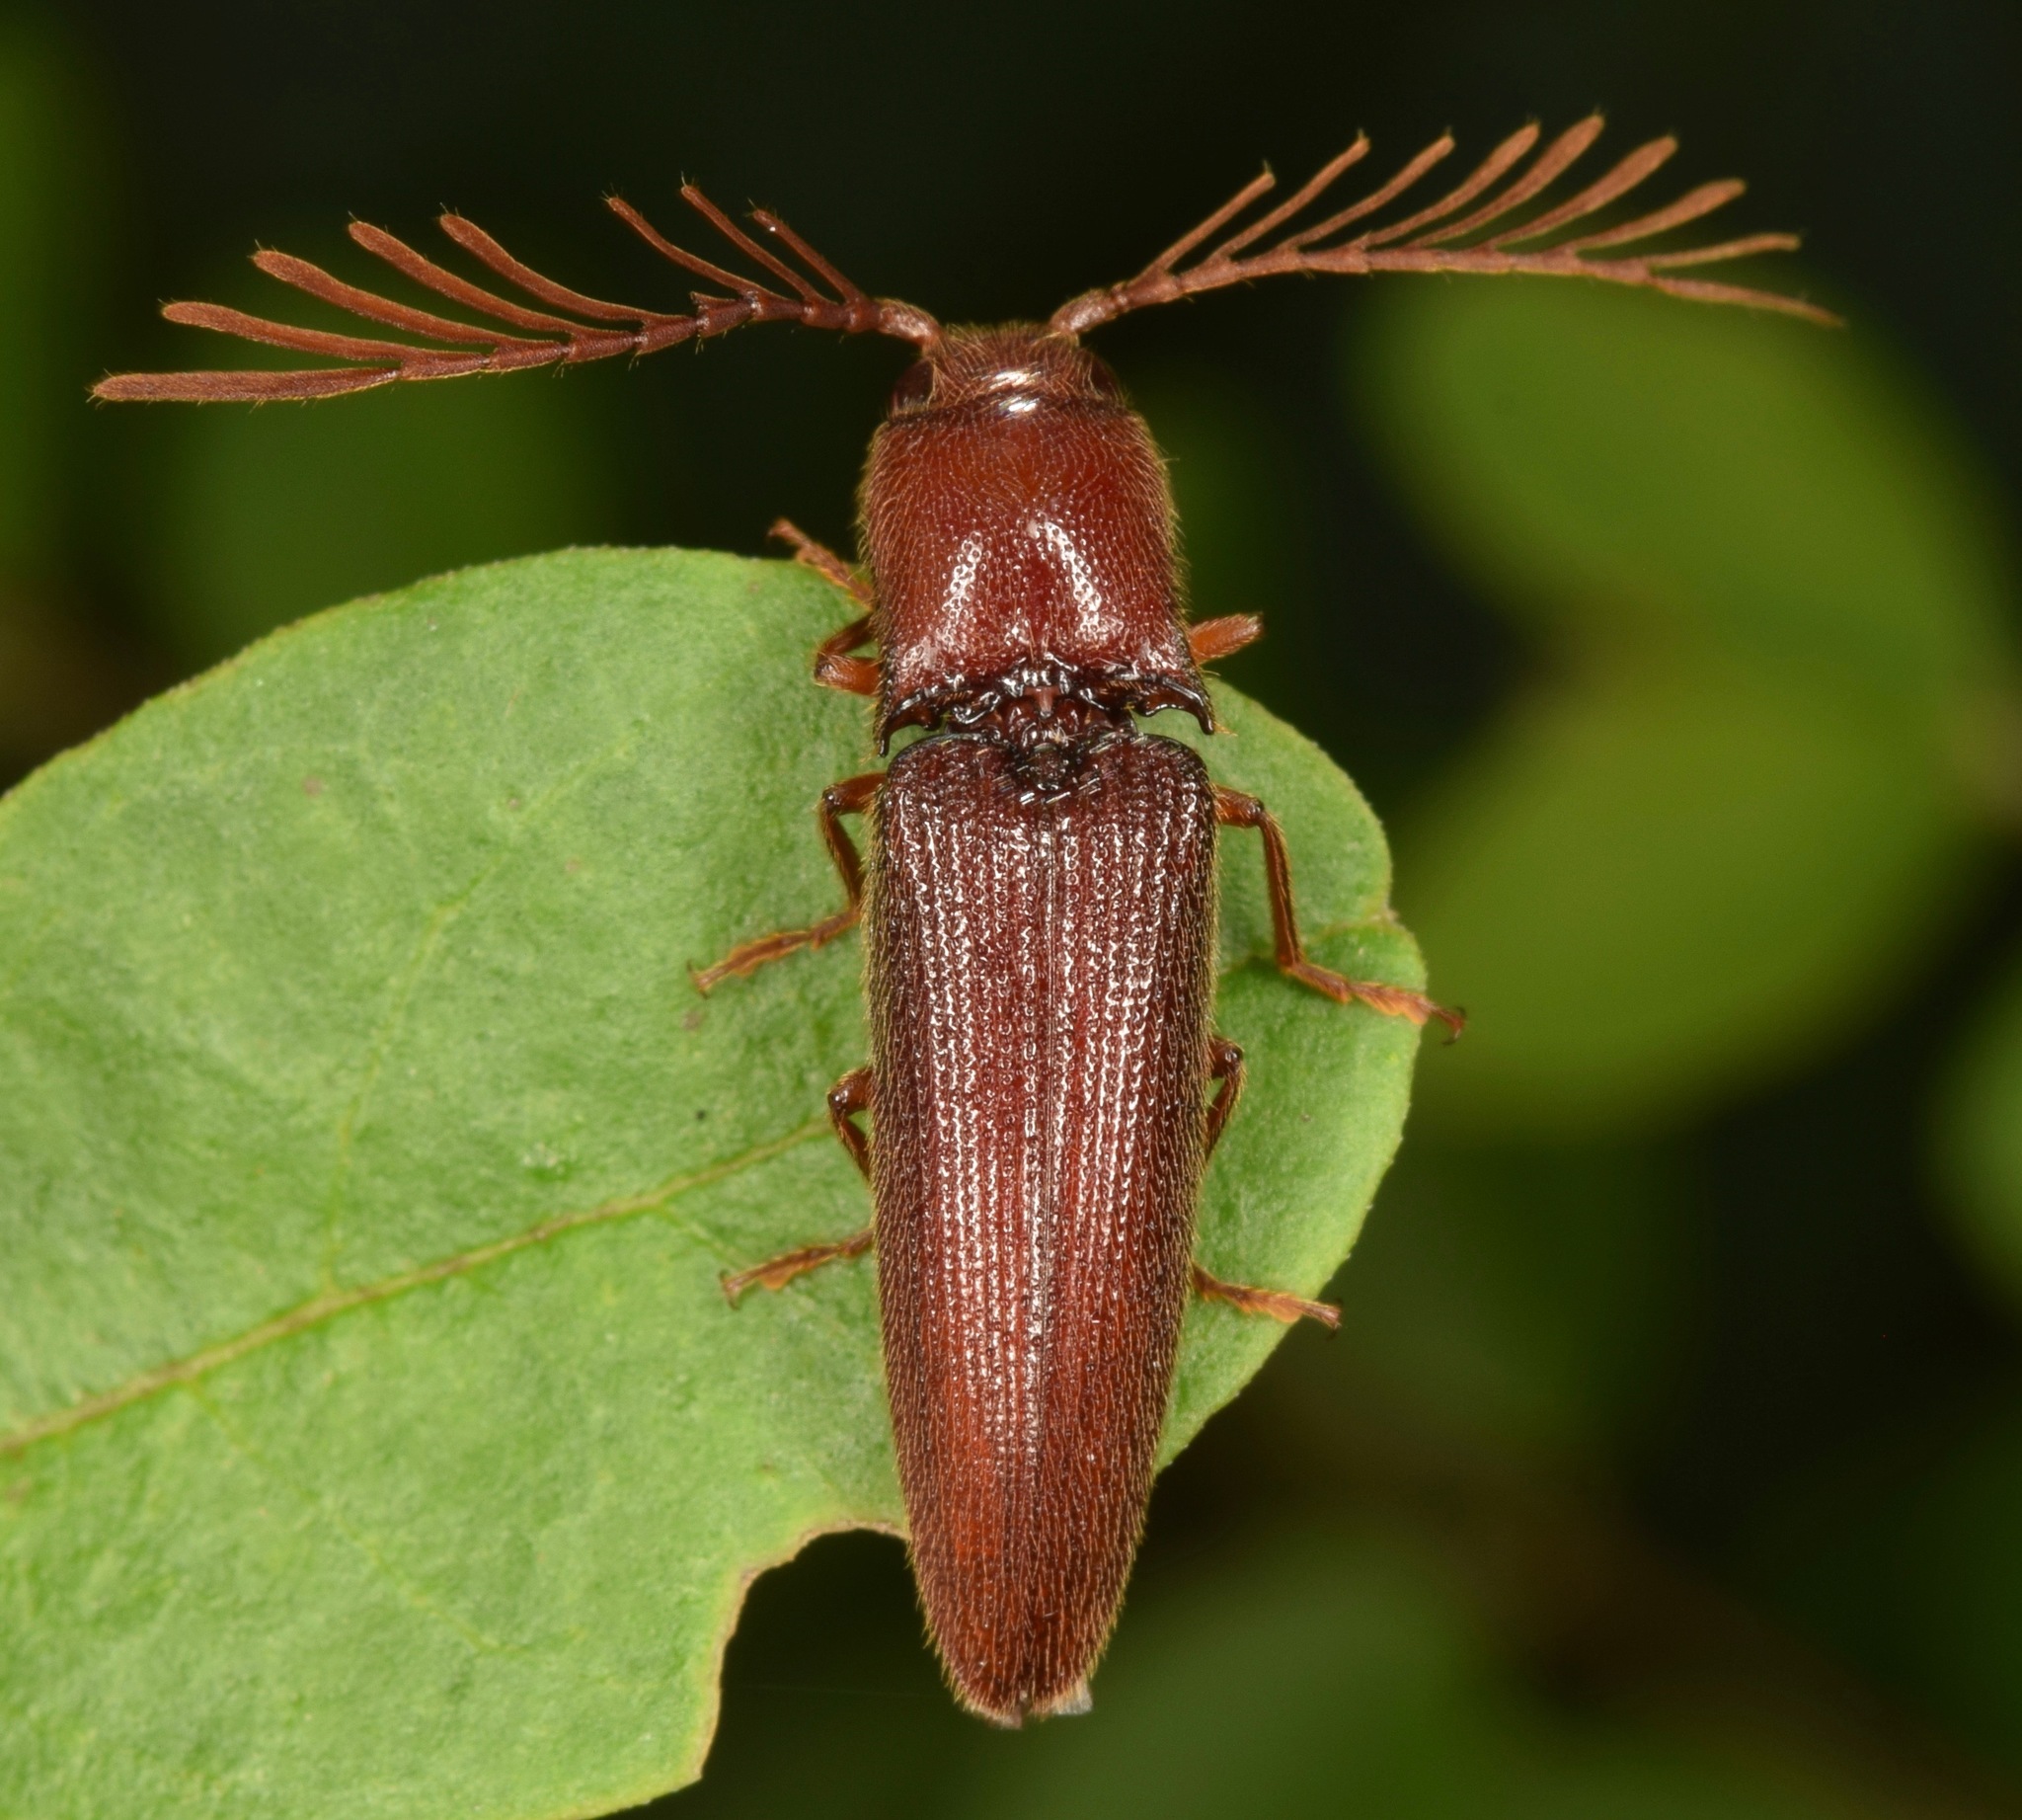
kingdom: Animalia
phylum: Arthropoda
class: Insecta
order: Coleoptera
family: Elateridae
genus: Dicrepidius
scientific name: Dicrepidius palmatus
